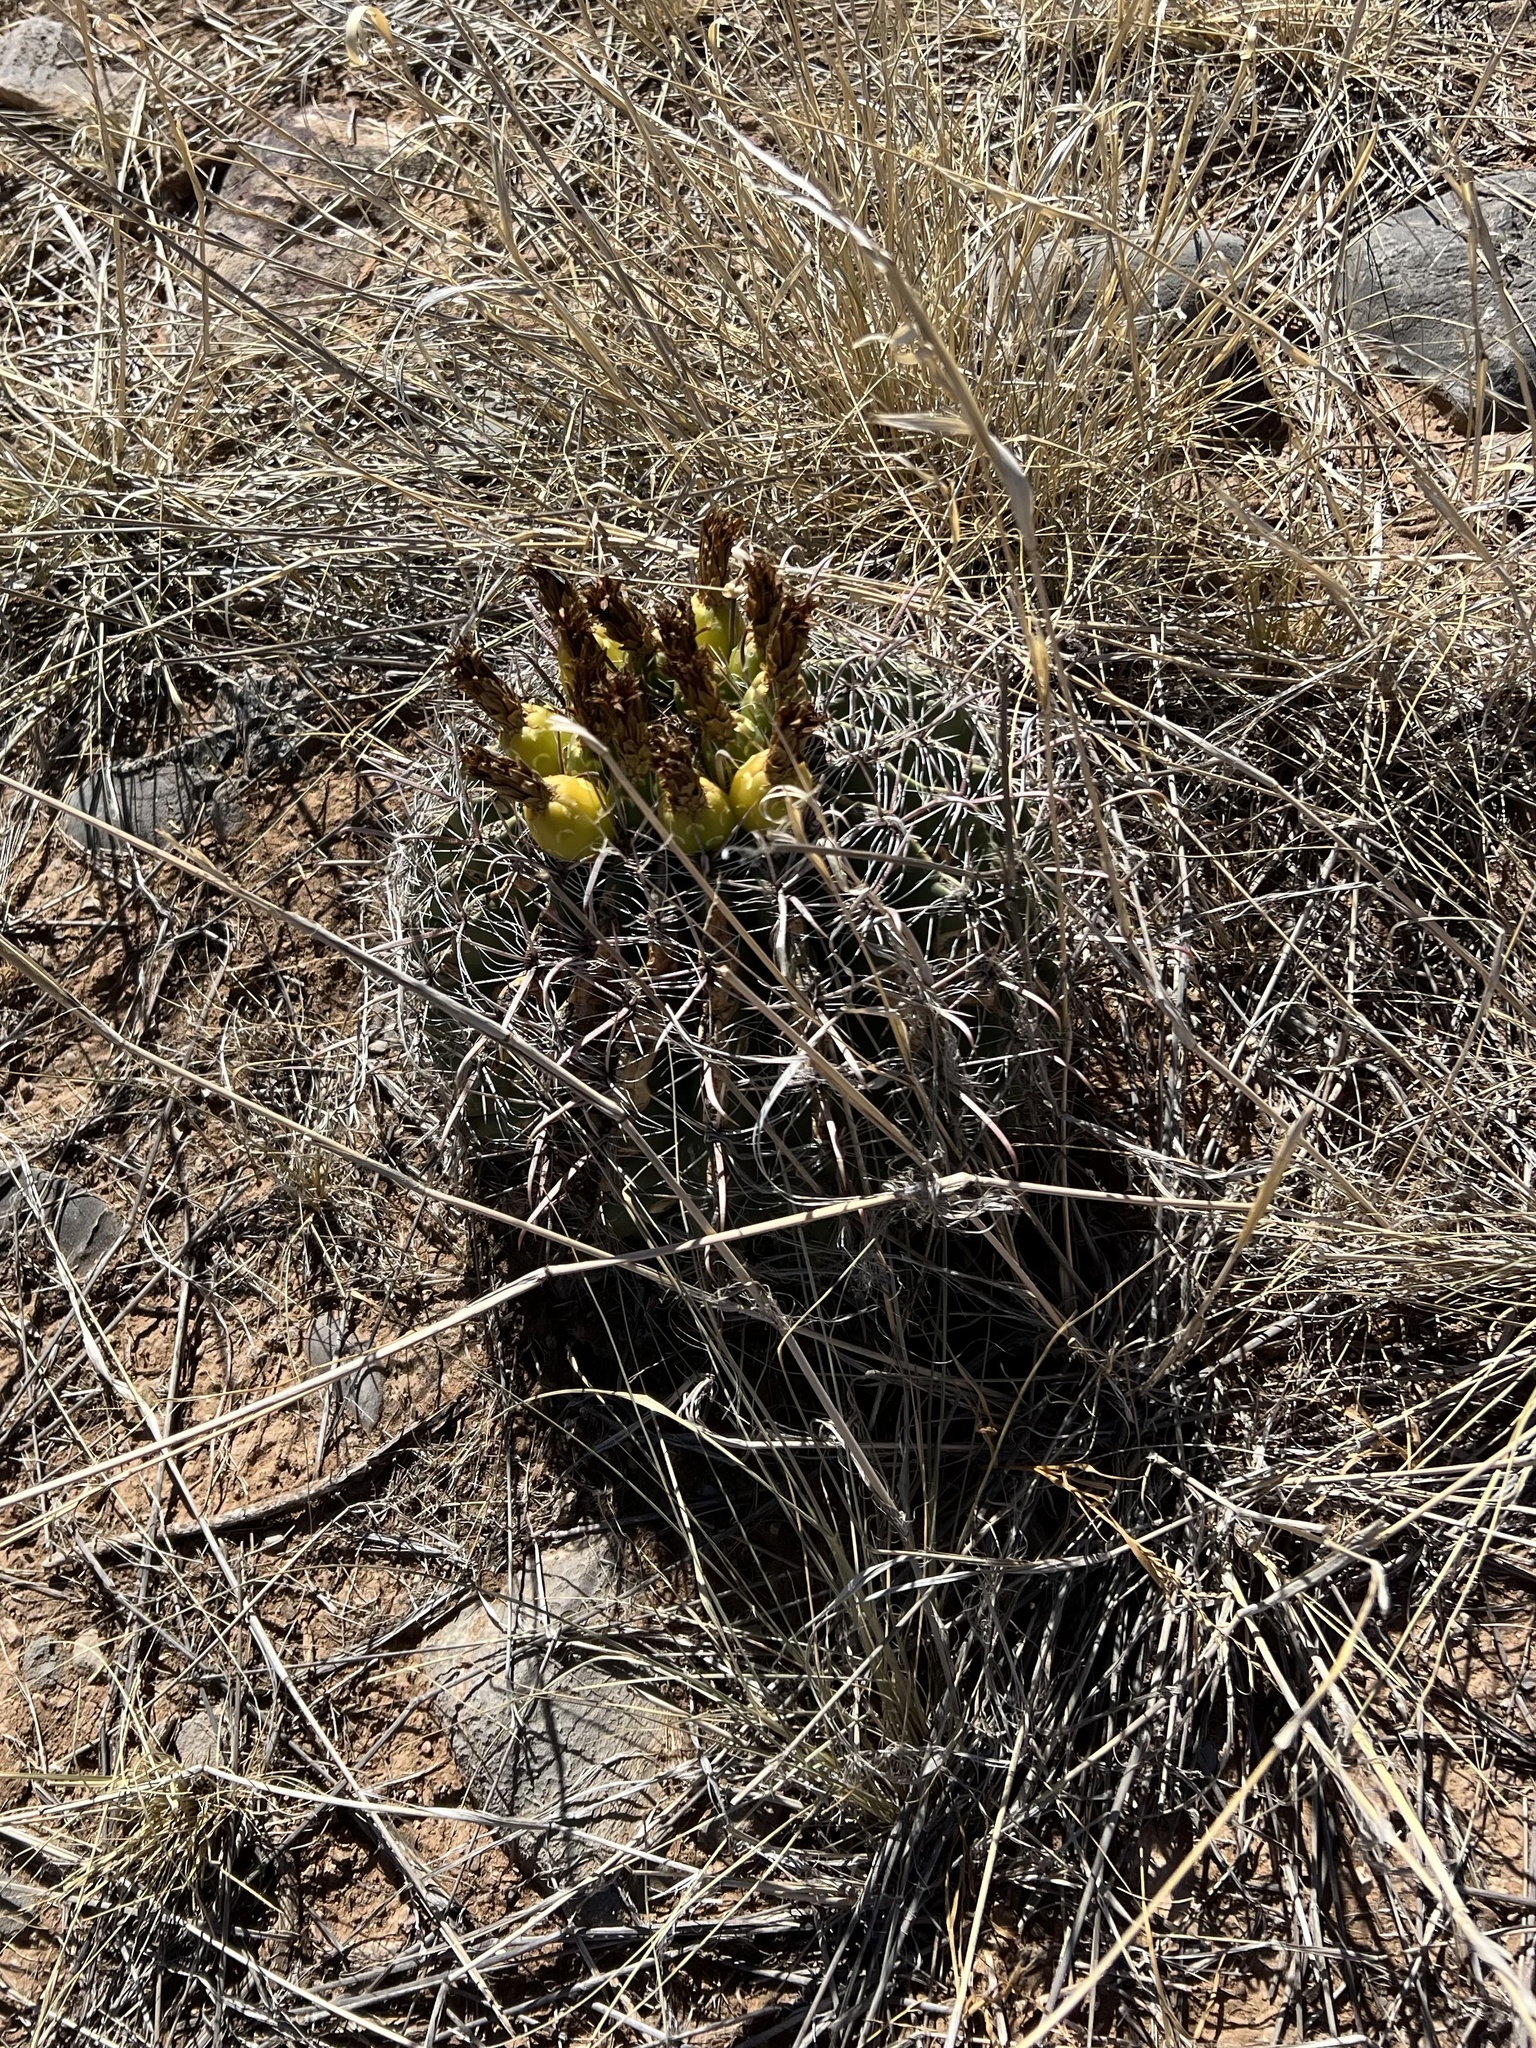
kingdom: Plantae
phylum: Tracheophyta
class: Magnoliopsida
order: Caryophyllales
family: Cactaceae
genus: Ferocactus
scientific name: Ferocactus wislizeni
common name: Candy barrel cactus
